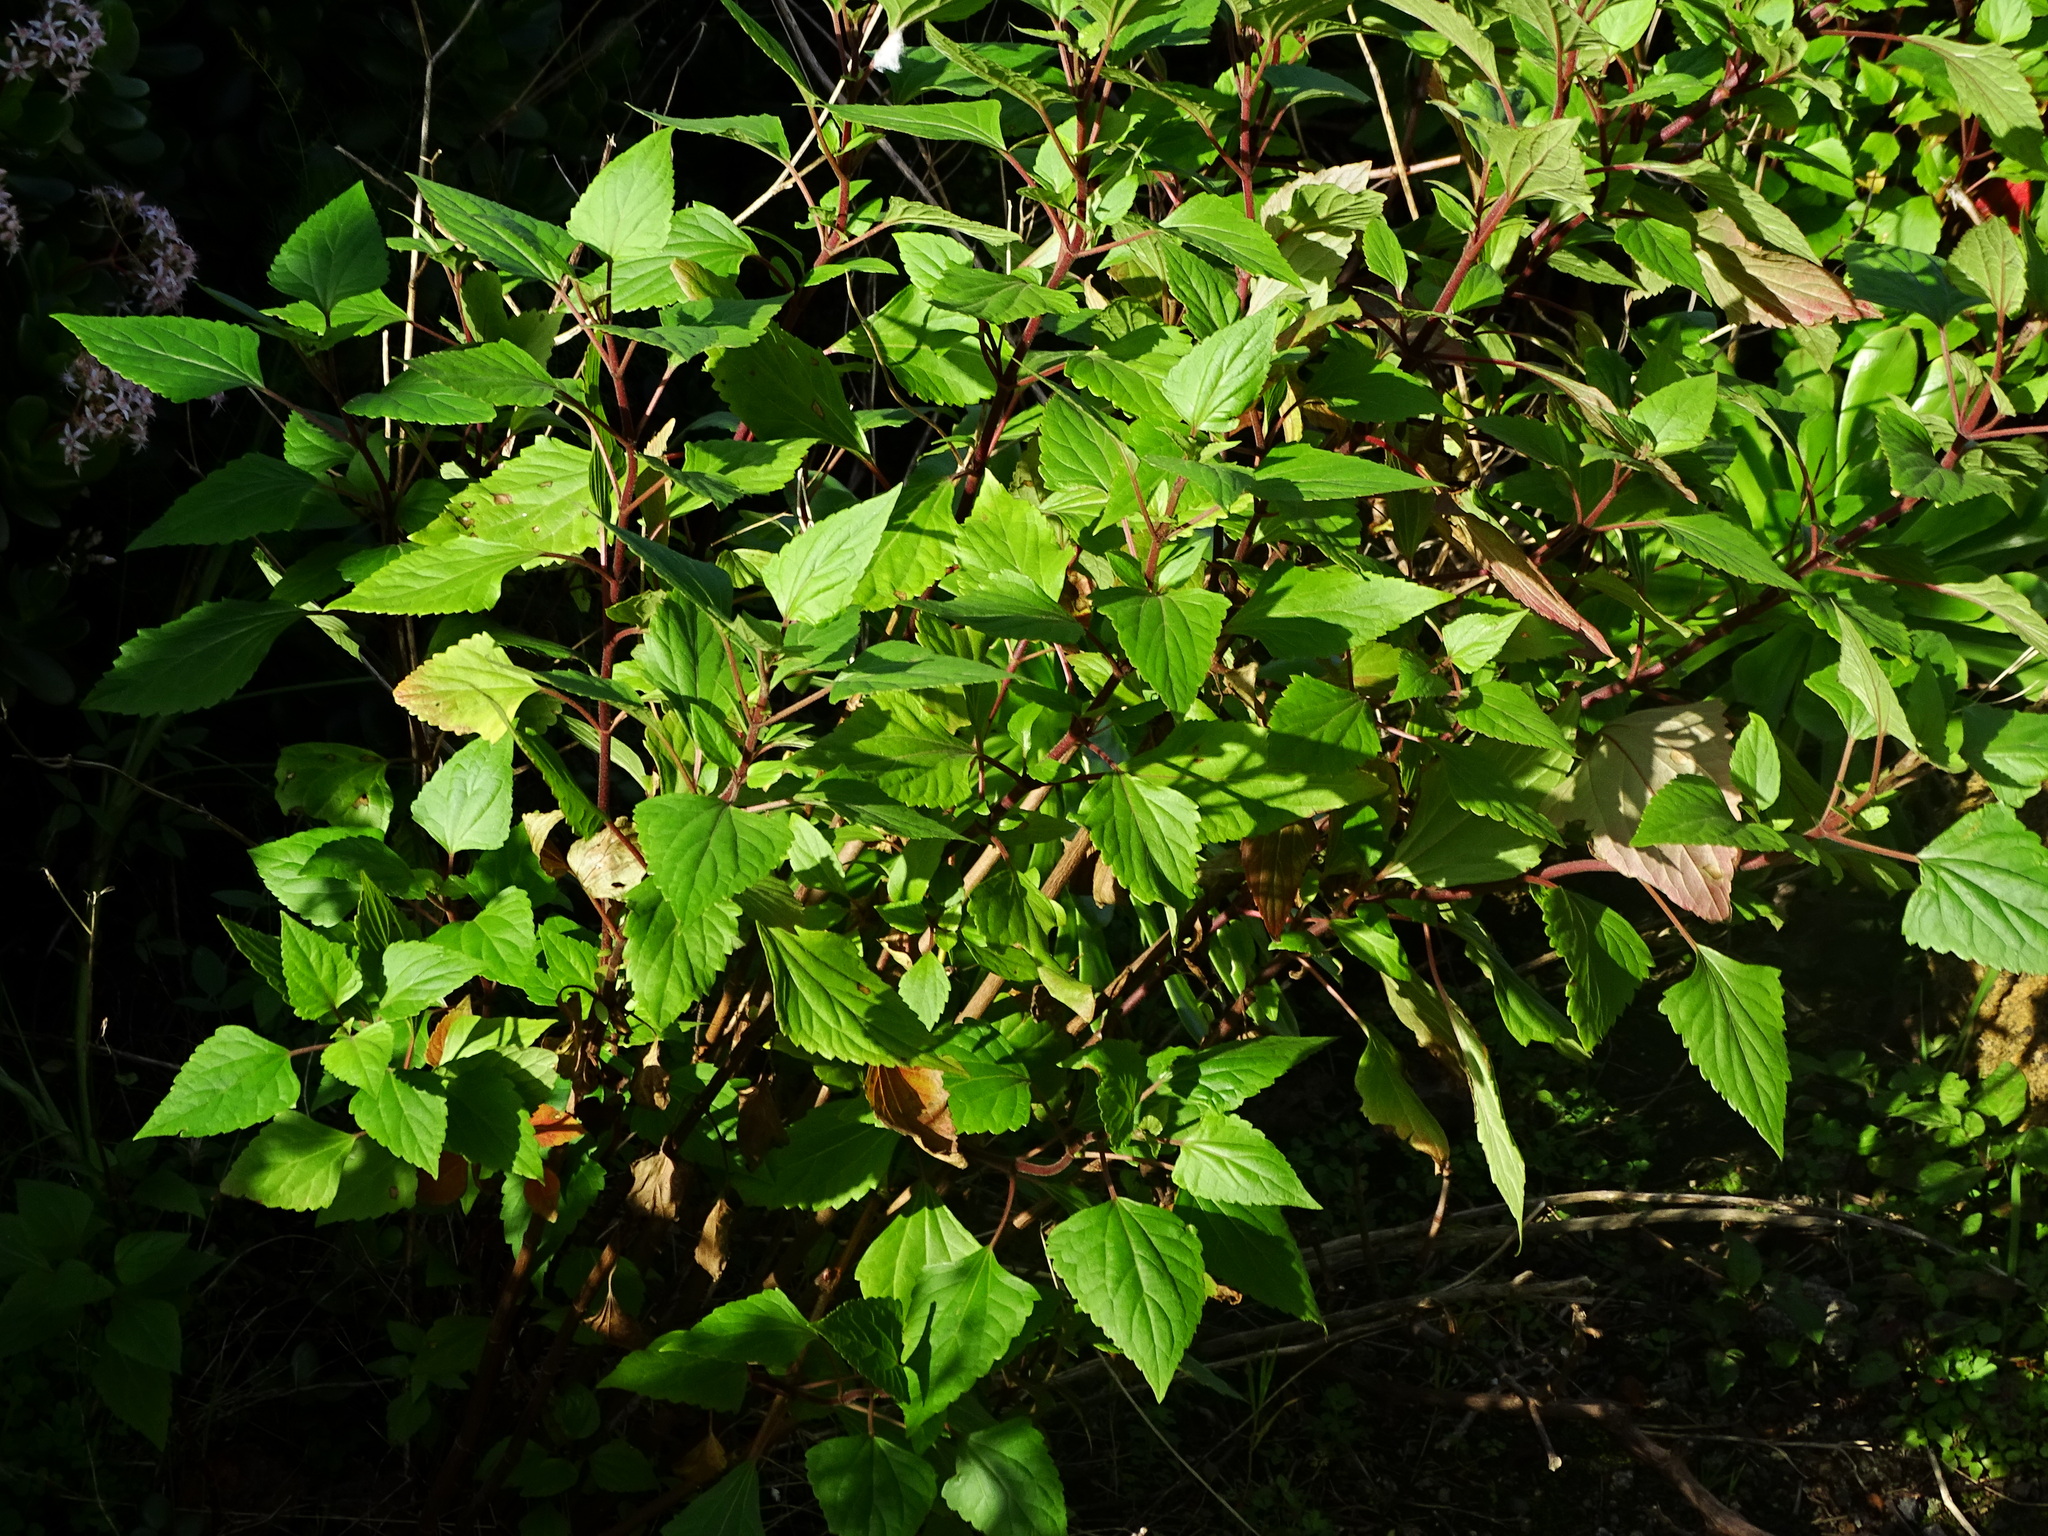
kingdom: Plantae
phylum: Tracheophyta
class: Magnoliopsida
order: Asterales
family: Asteraceae
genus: Ageratina
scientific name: Ageratina adenophora
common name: Sticky snakeroot
